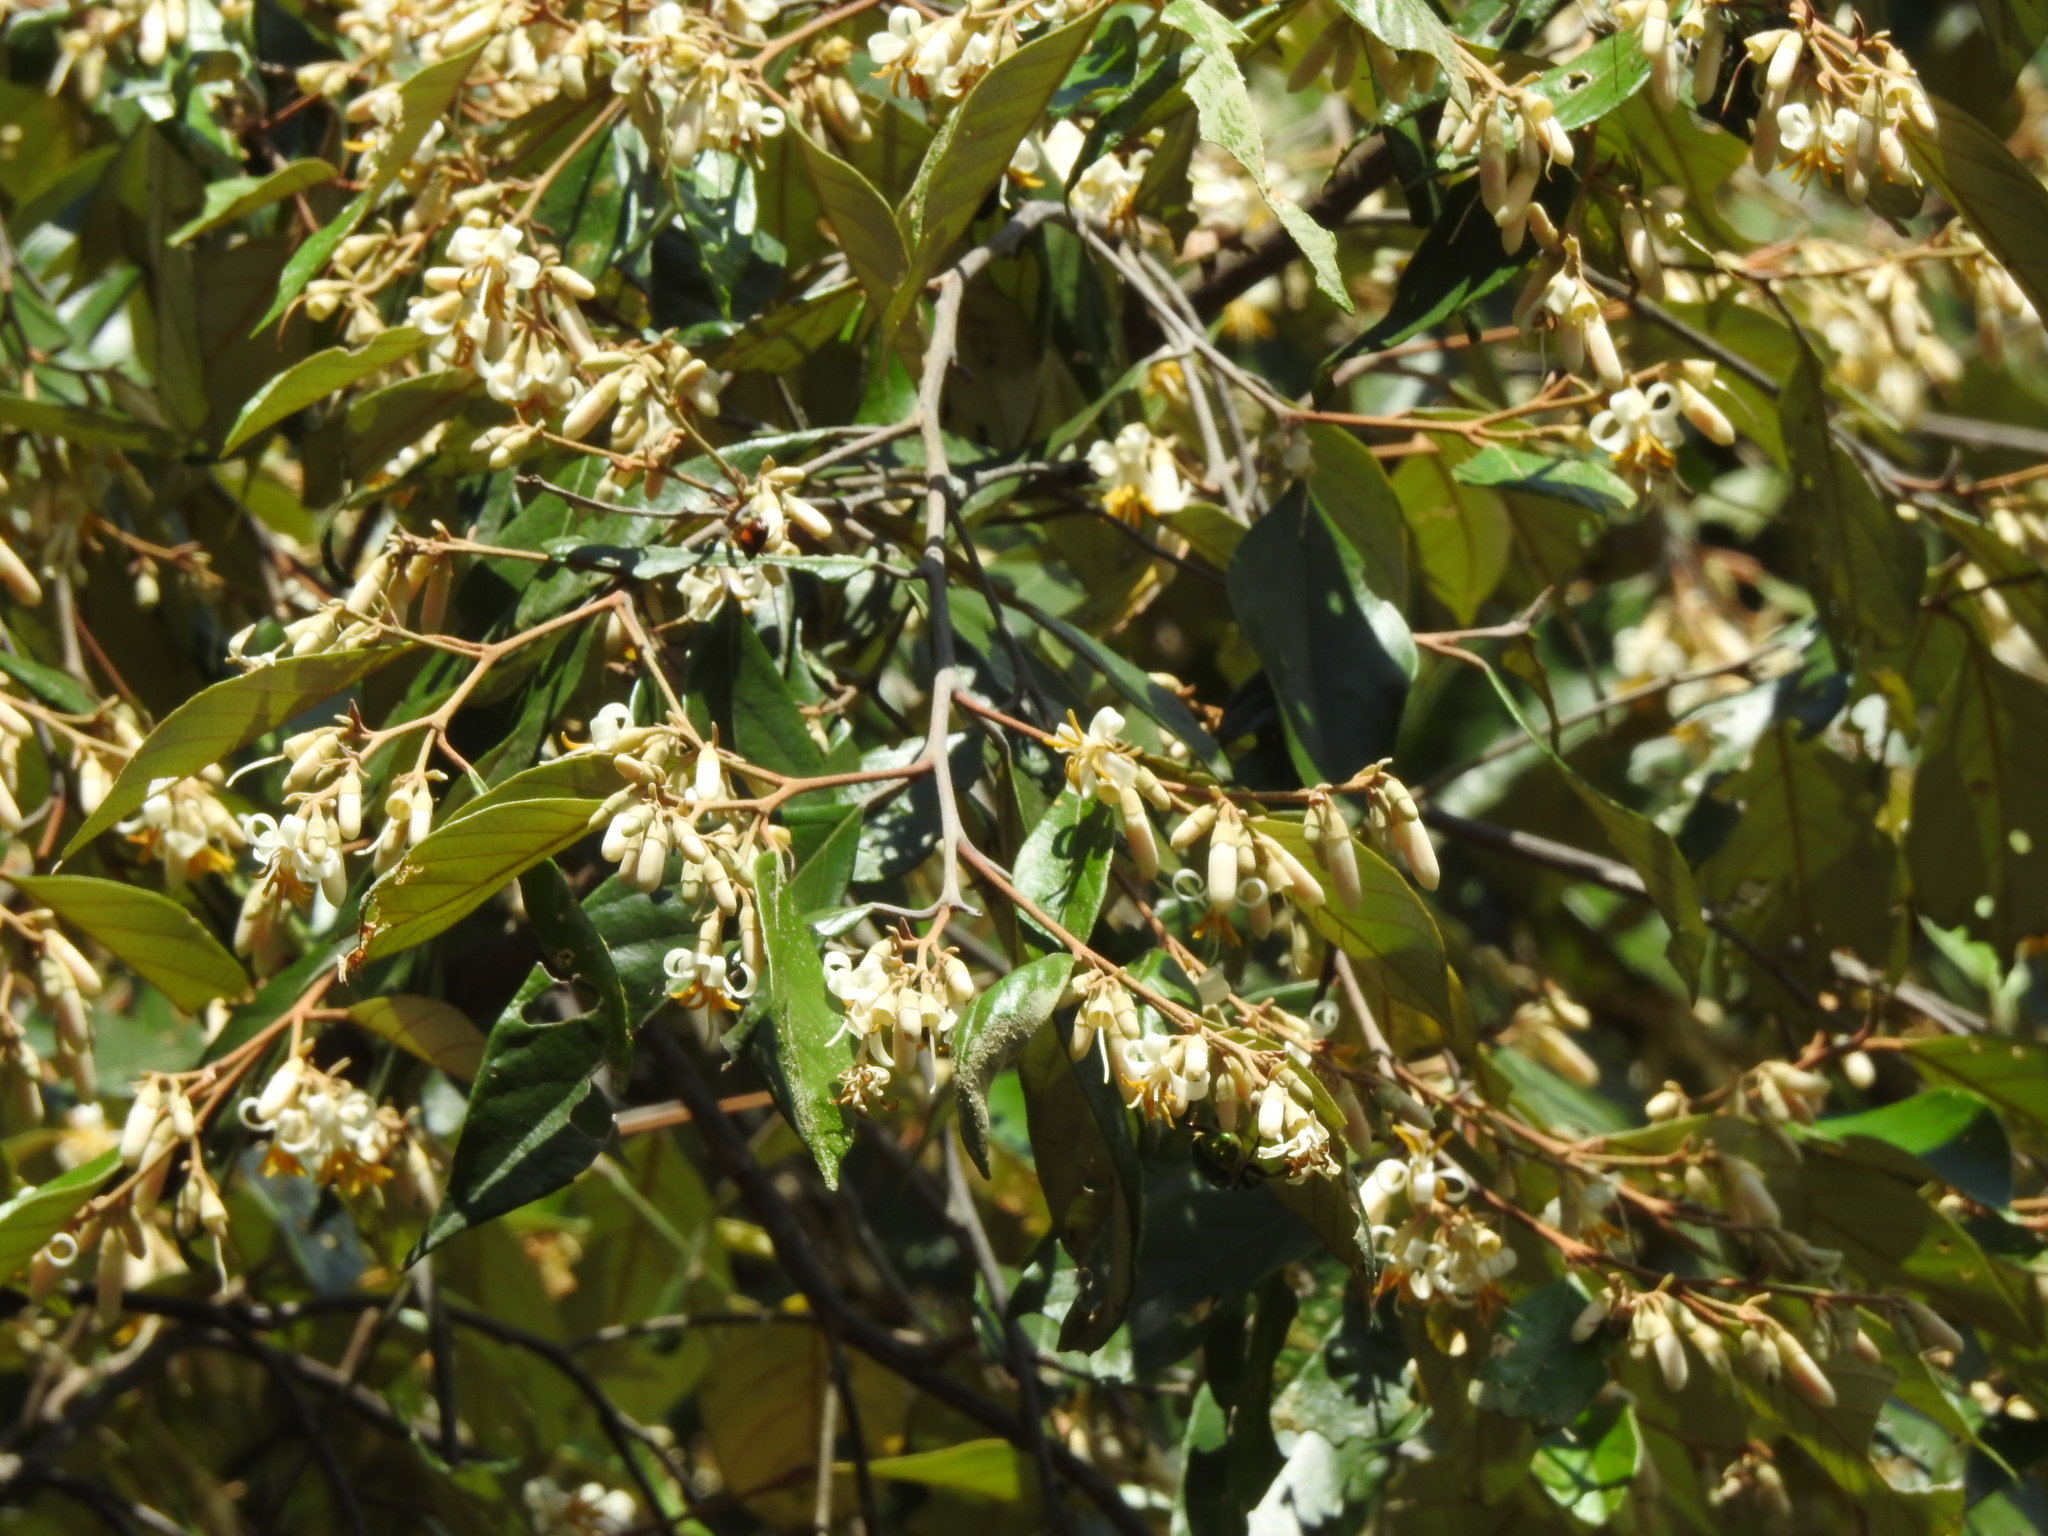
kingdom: Plantae
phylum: Tracheophyta
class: Magnoliopsida
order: Ericales
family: Styracaceae
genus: Styrax
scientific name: Styrax suberifolius
